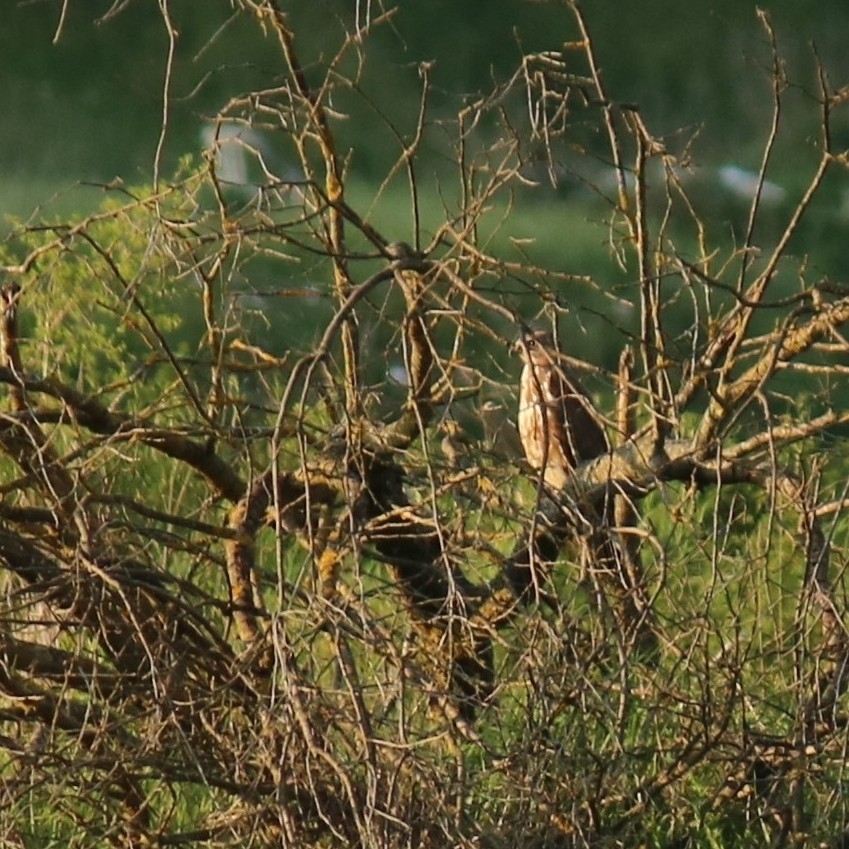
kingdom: Animalia
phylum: Chordata
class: Aves
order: Accipitriformes
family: Accipitridae
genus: Buteo
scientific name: Buteo buteo
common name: Common buzzard
